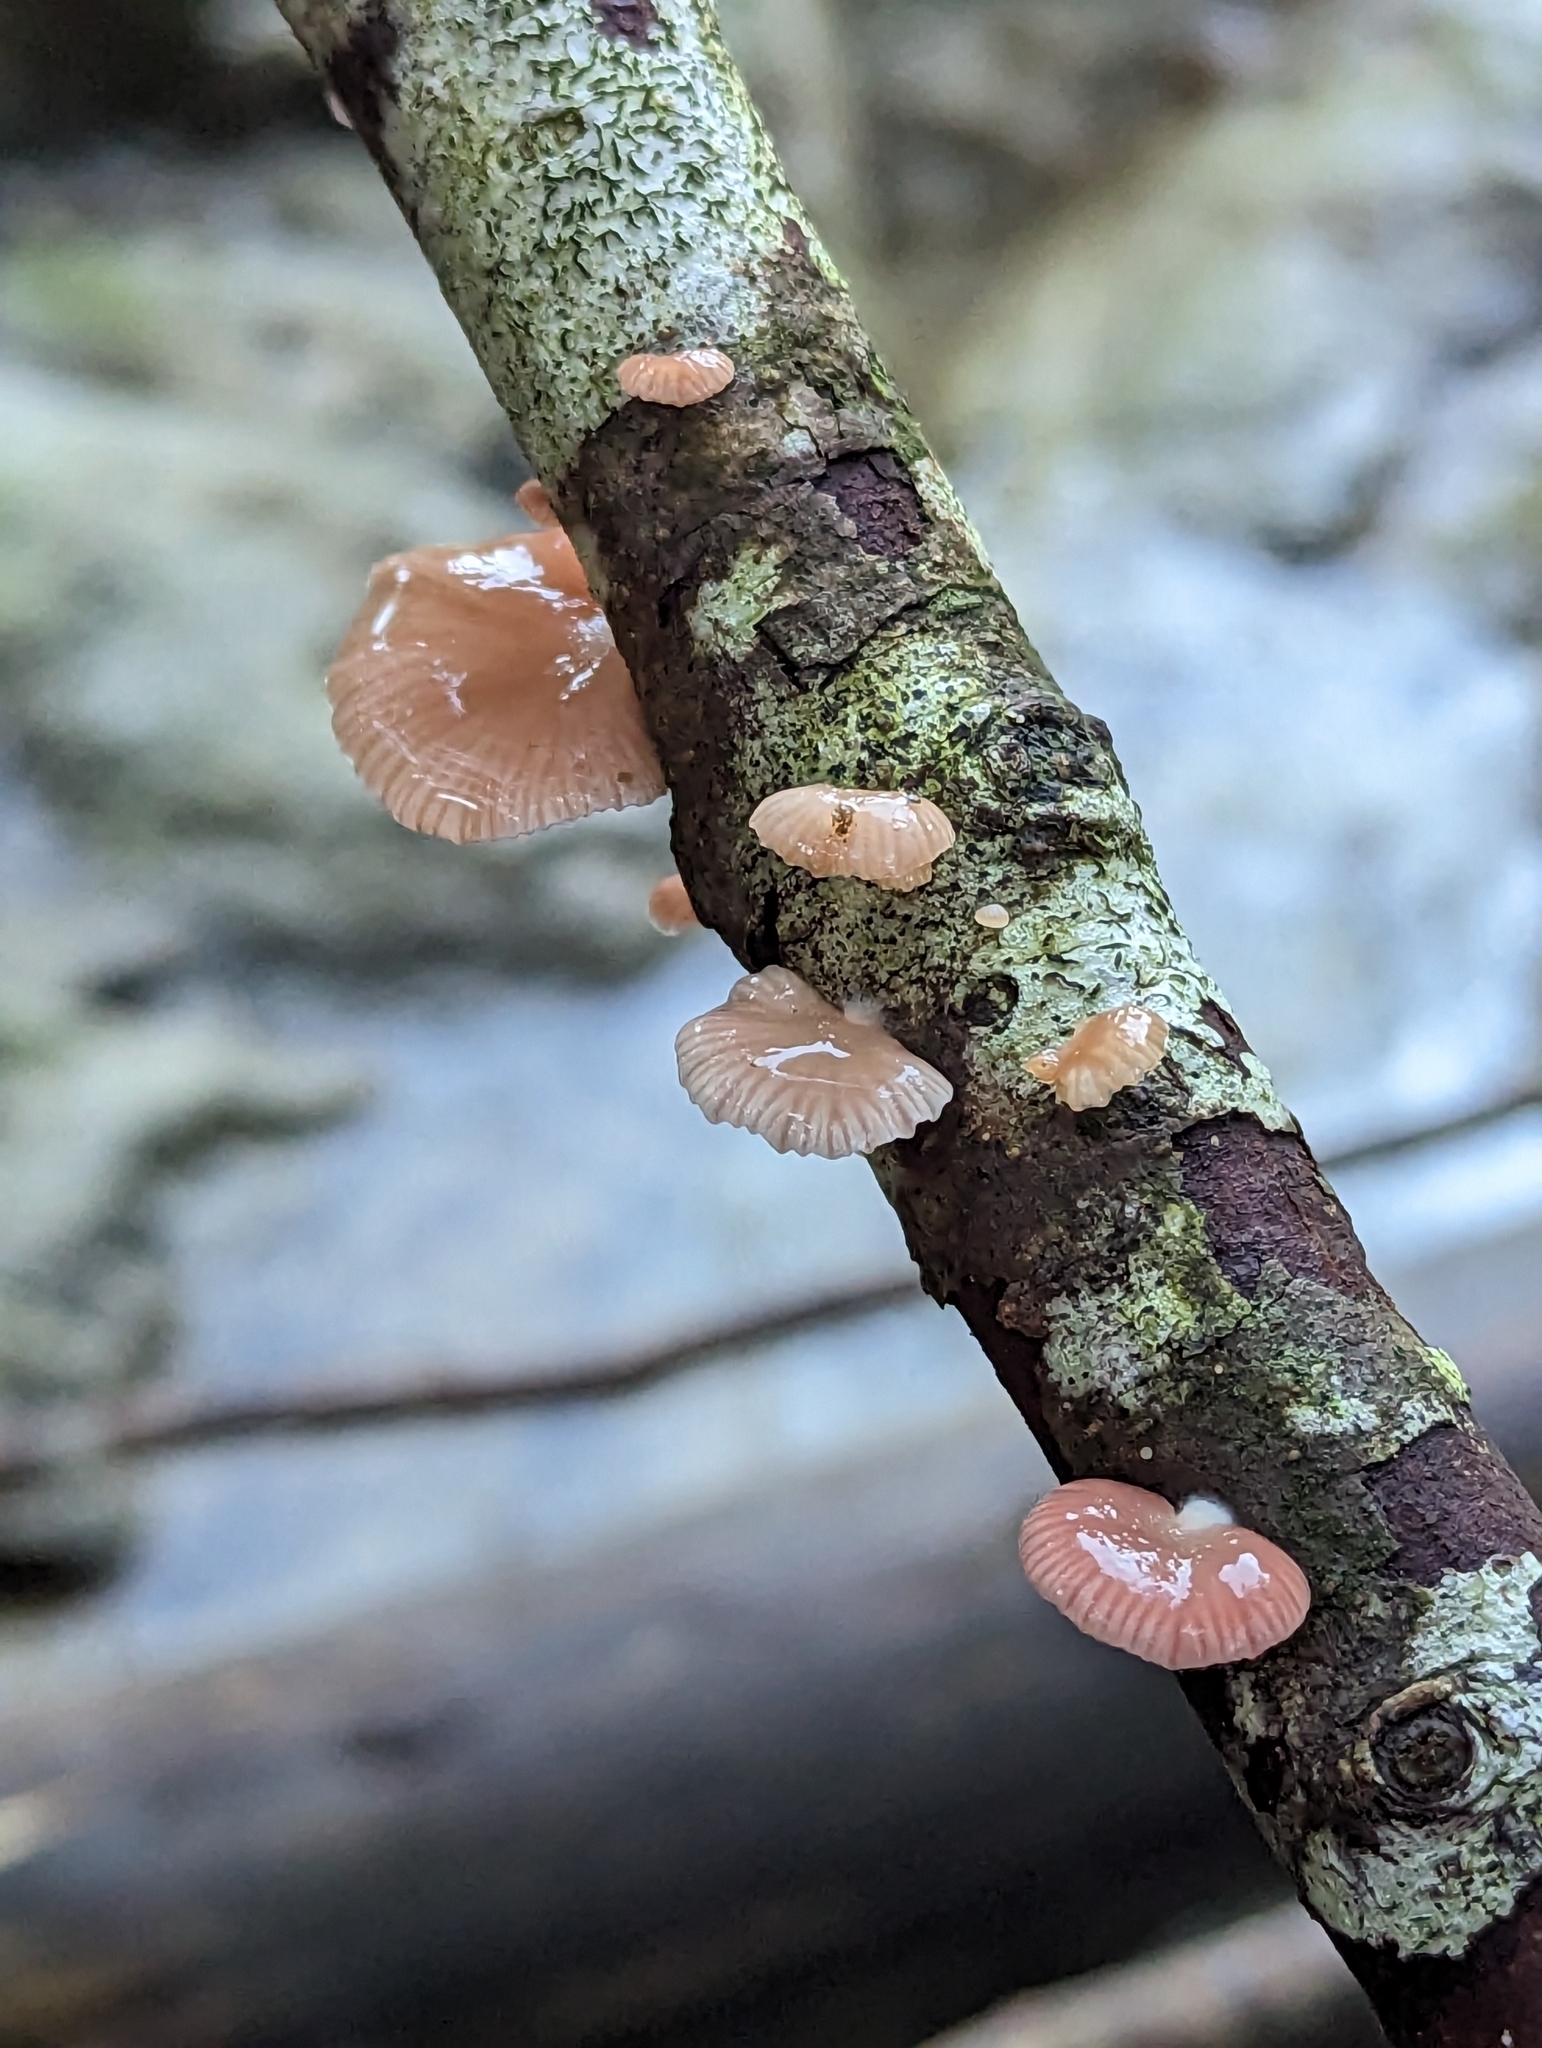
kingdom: Fungi
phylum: Basidiomycota
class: Agaricomycetes
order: Agaricales
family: Mycenaceae
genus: Panellus
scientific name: Panellus longinquus
